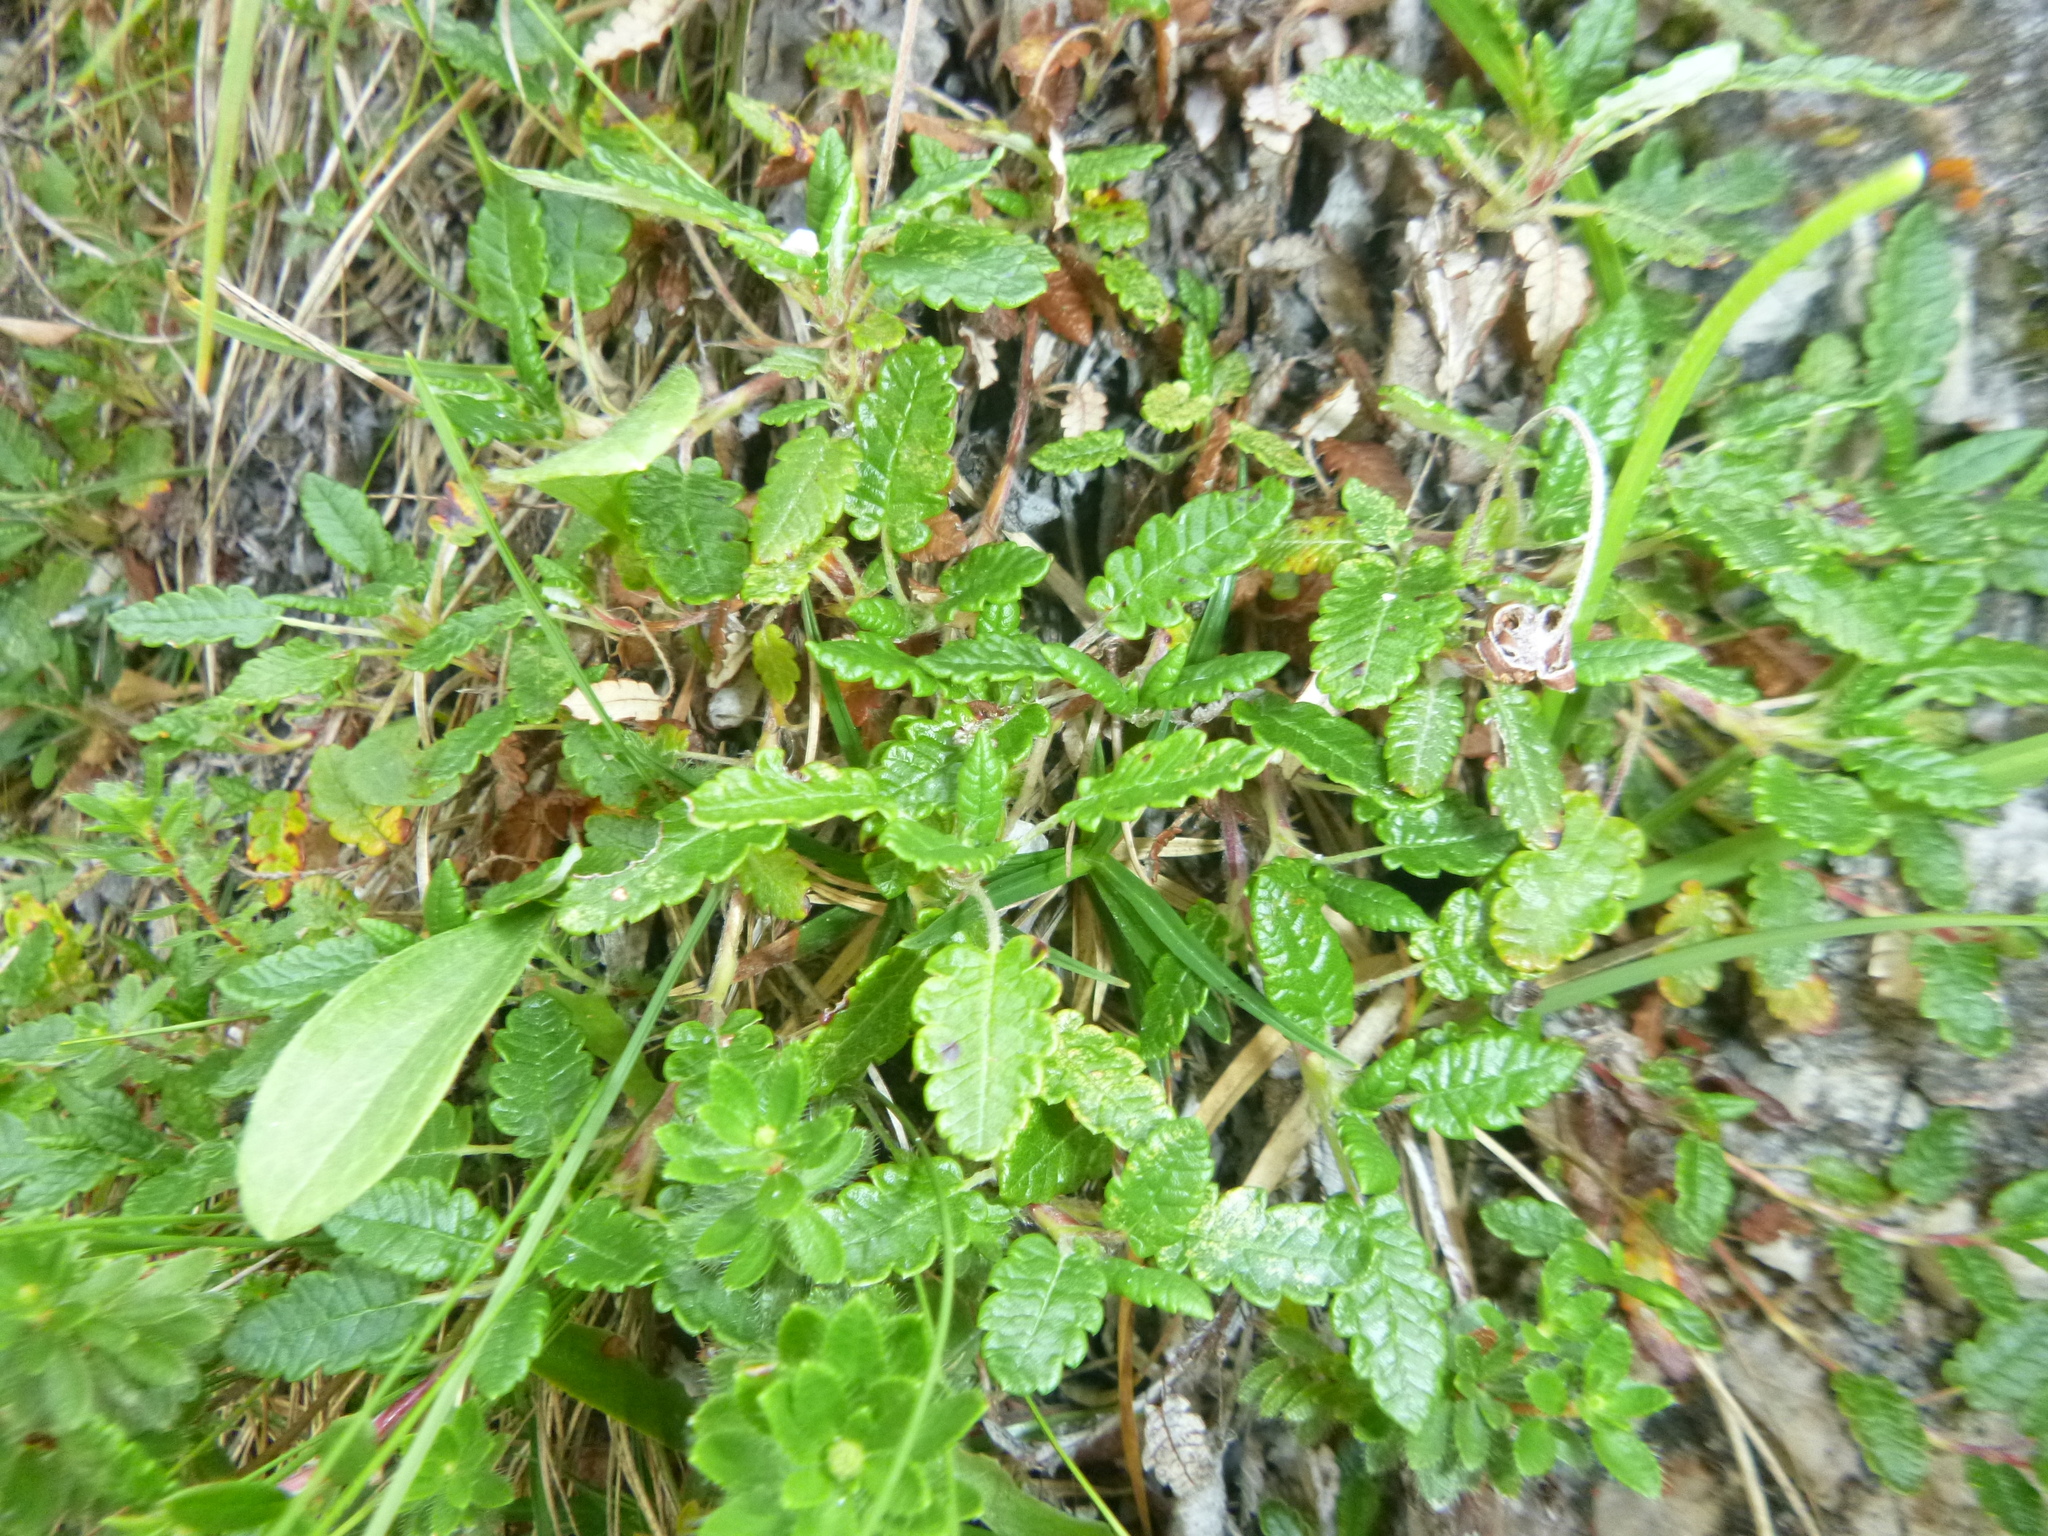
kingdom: Plantae
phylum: Tracheophyta
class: Magnoliopsida
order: Rosales
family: Rosaceae
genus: Dryas
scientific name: Dryas octopetala
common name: Eight-petal mountain-avens
